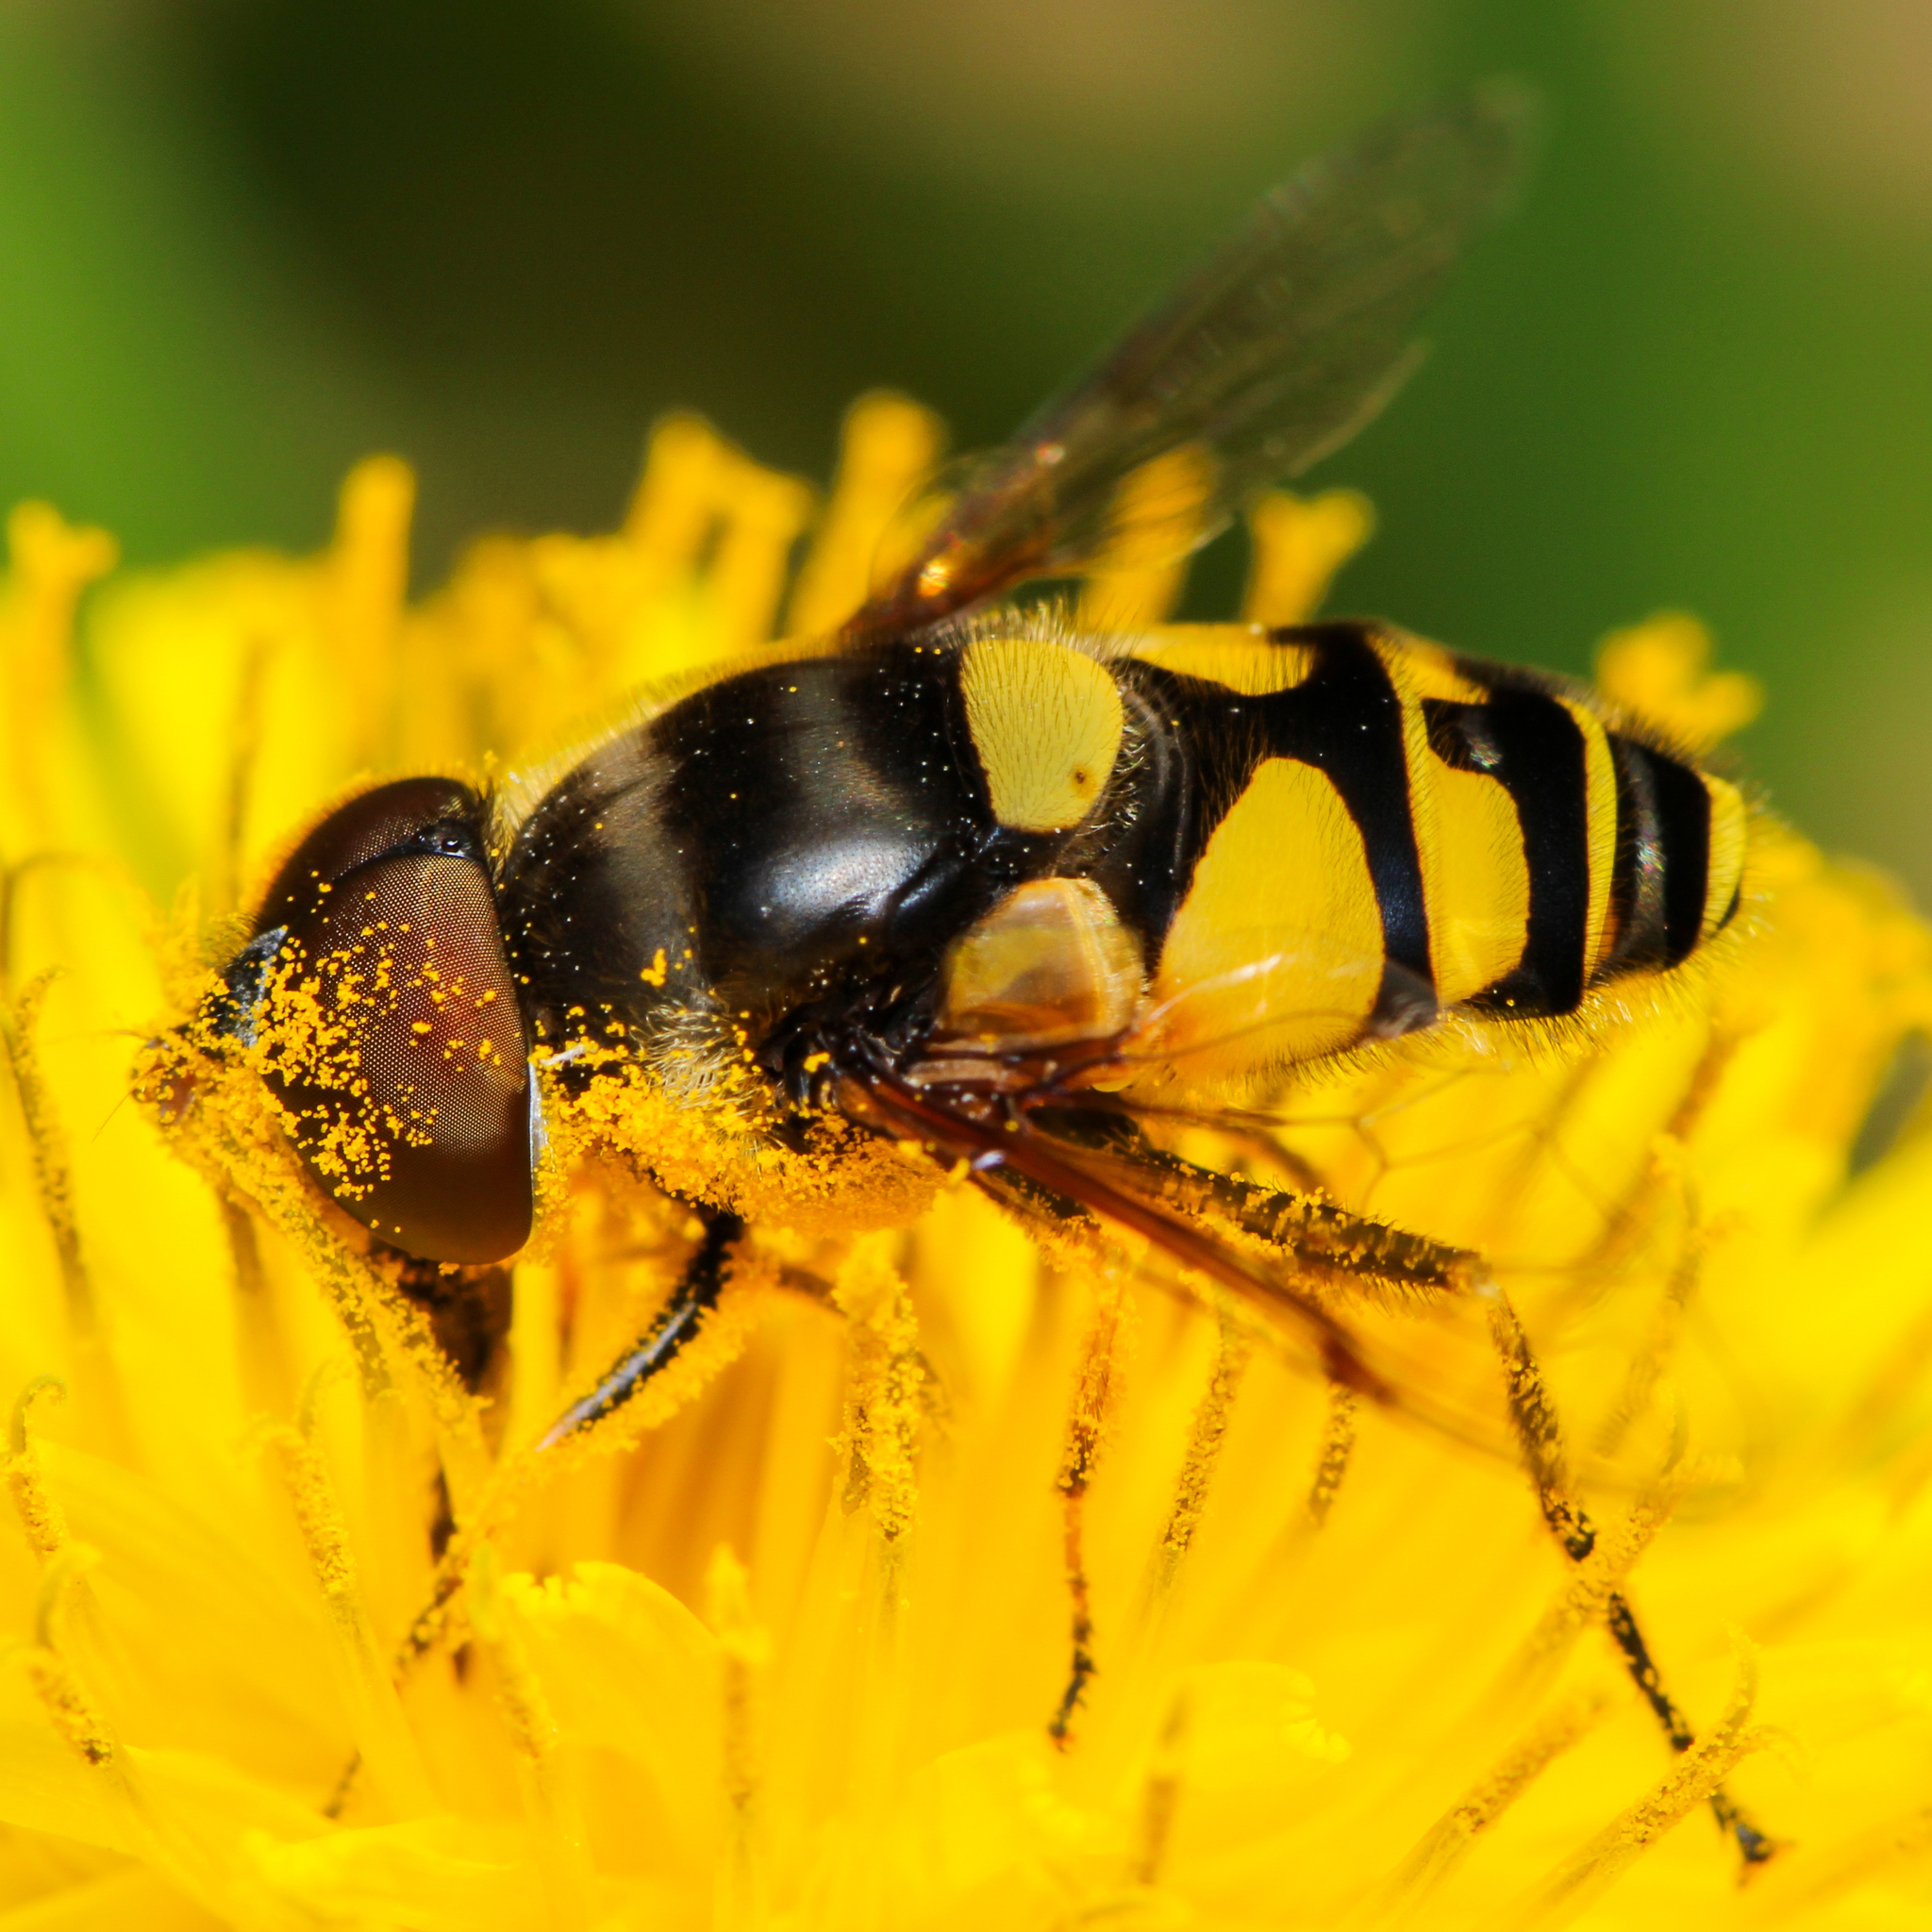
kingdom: Animalia
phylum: Arthropoda
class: Insecta
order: Diptera
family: Syrphidae
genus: Eristalis
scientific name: Eristalis transversa
